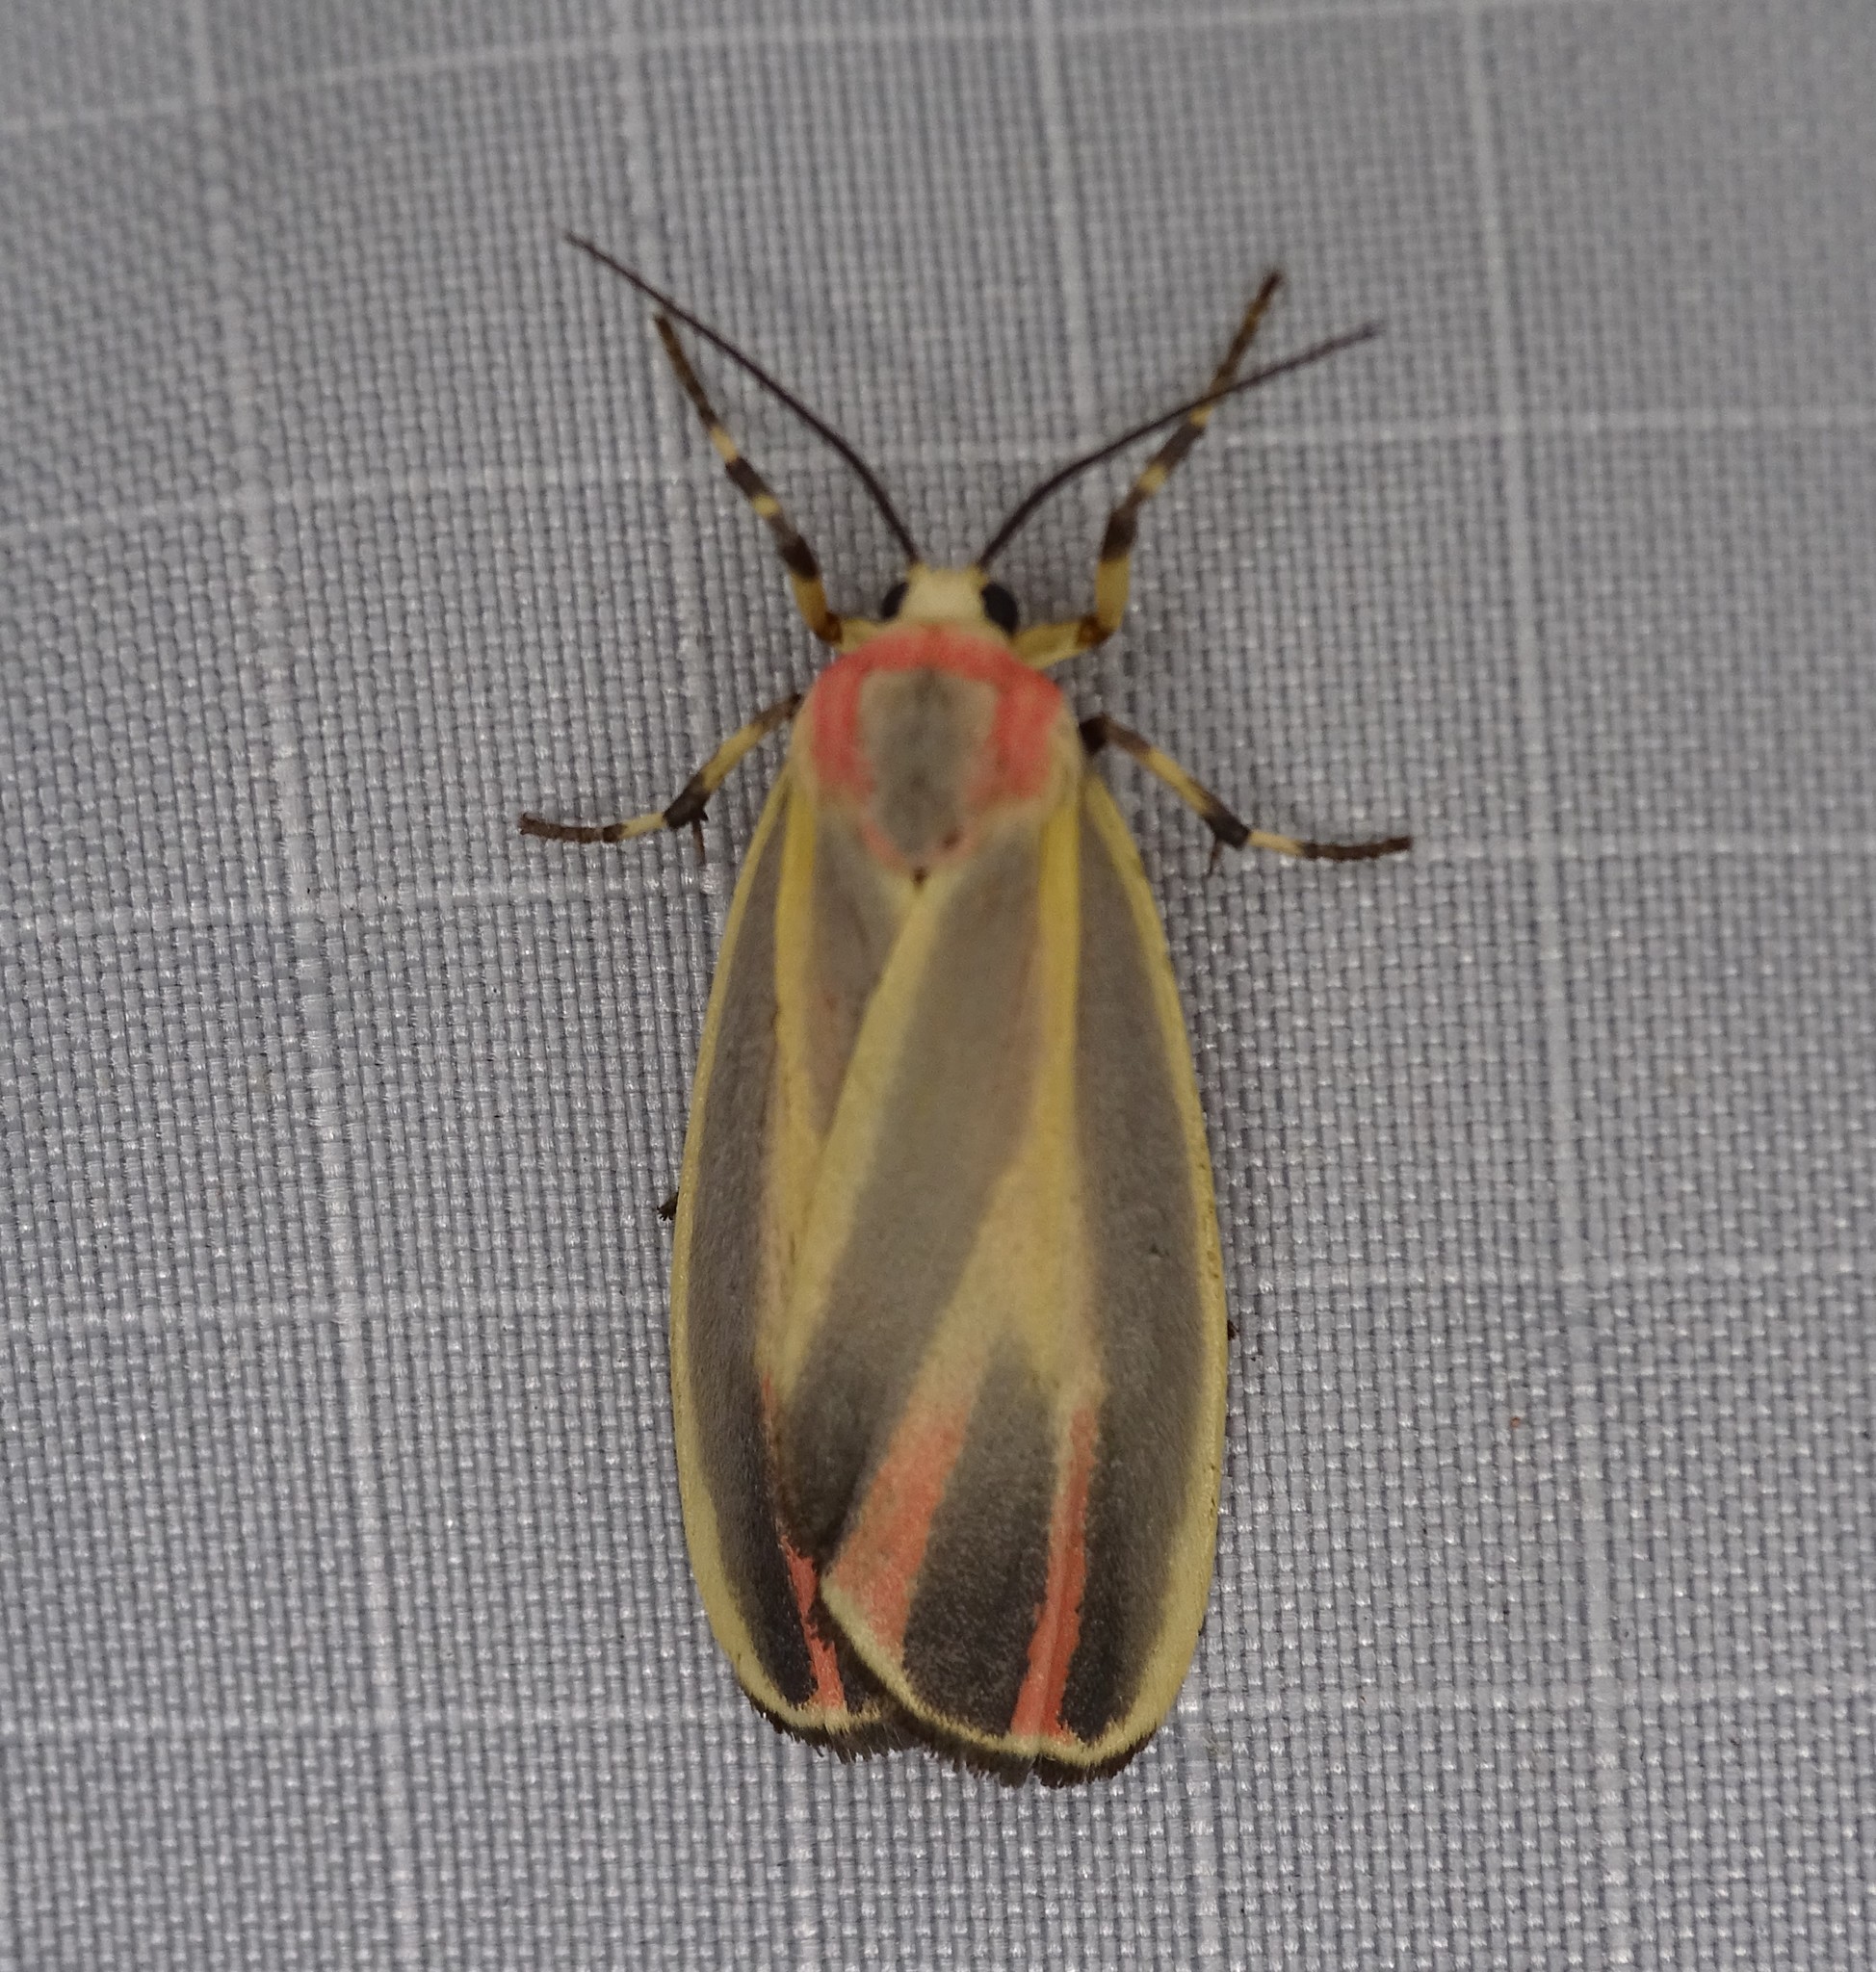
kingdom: Animalia
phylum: Arthropoda
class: Insecta
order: Lepidoptera
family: Erebidae
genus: Hypoprepia
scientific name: Hypoprepia fucosa
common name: Painted lichen moth
